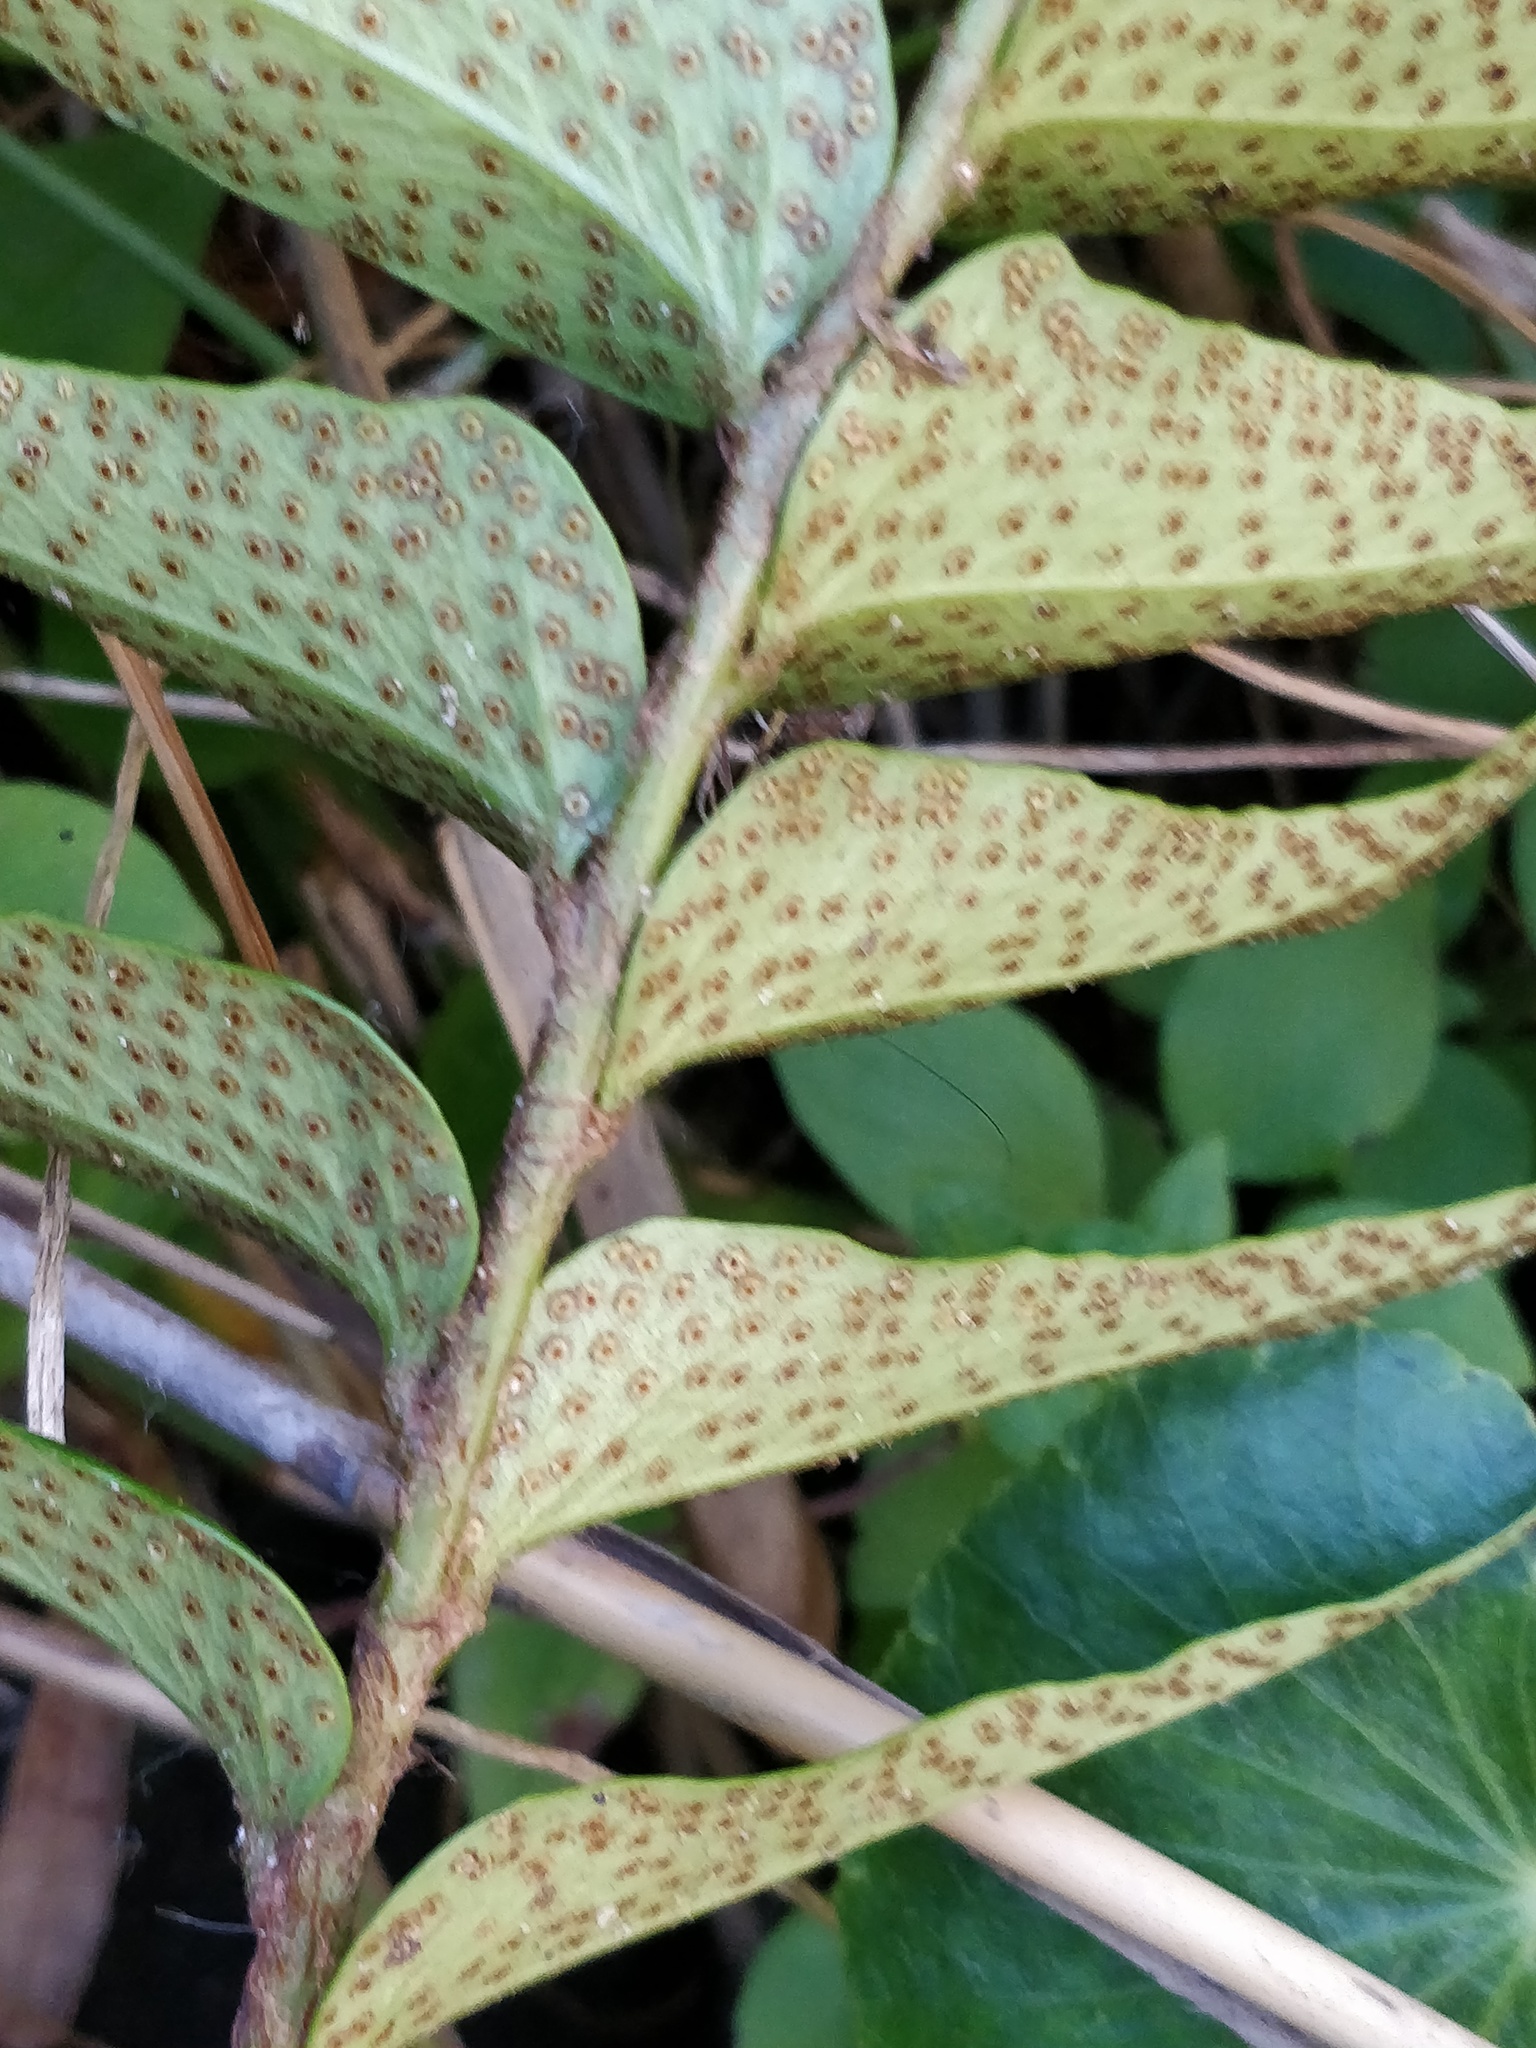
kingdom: Plantae
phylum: Tracheophyta
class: Polypodiopsida
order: Polypodiales
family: Dryopteridaceae
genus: Cyrtomium
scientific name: Cyrtomium falcatum
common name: House holly-fern
